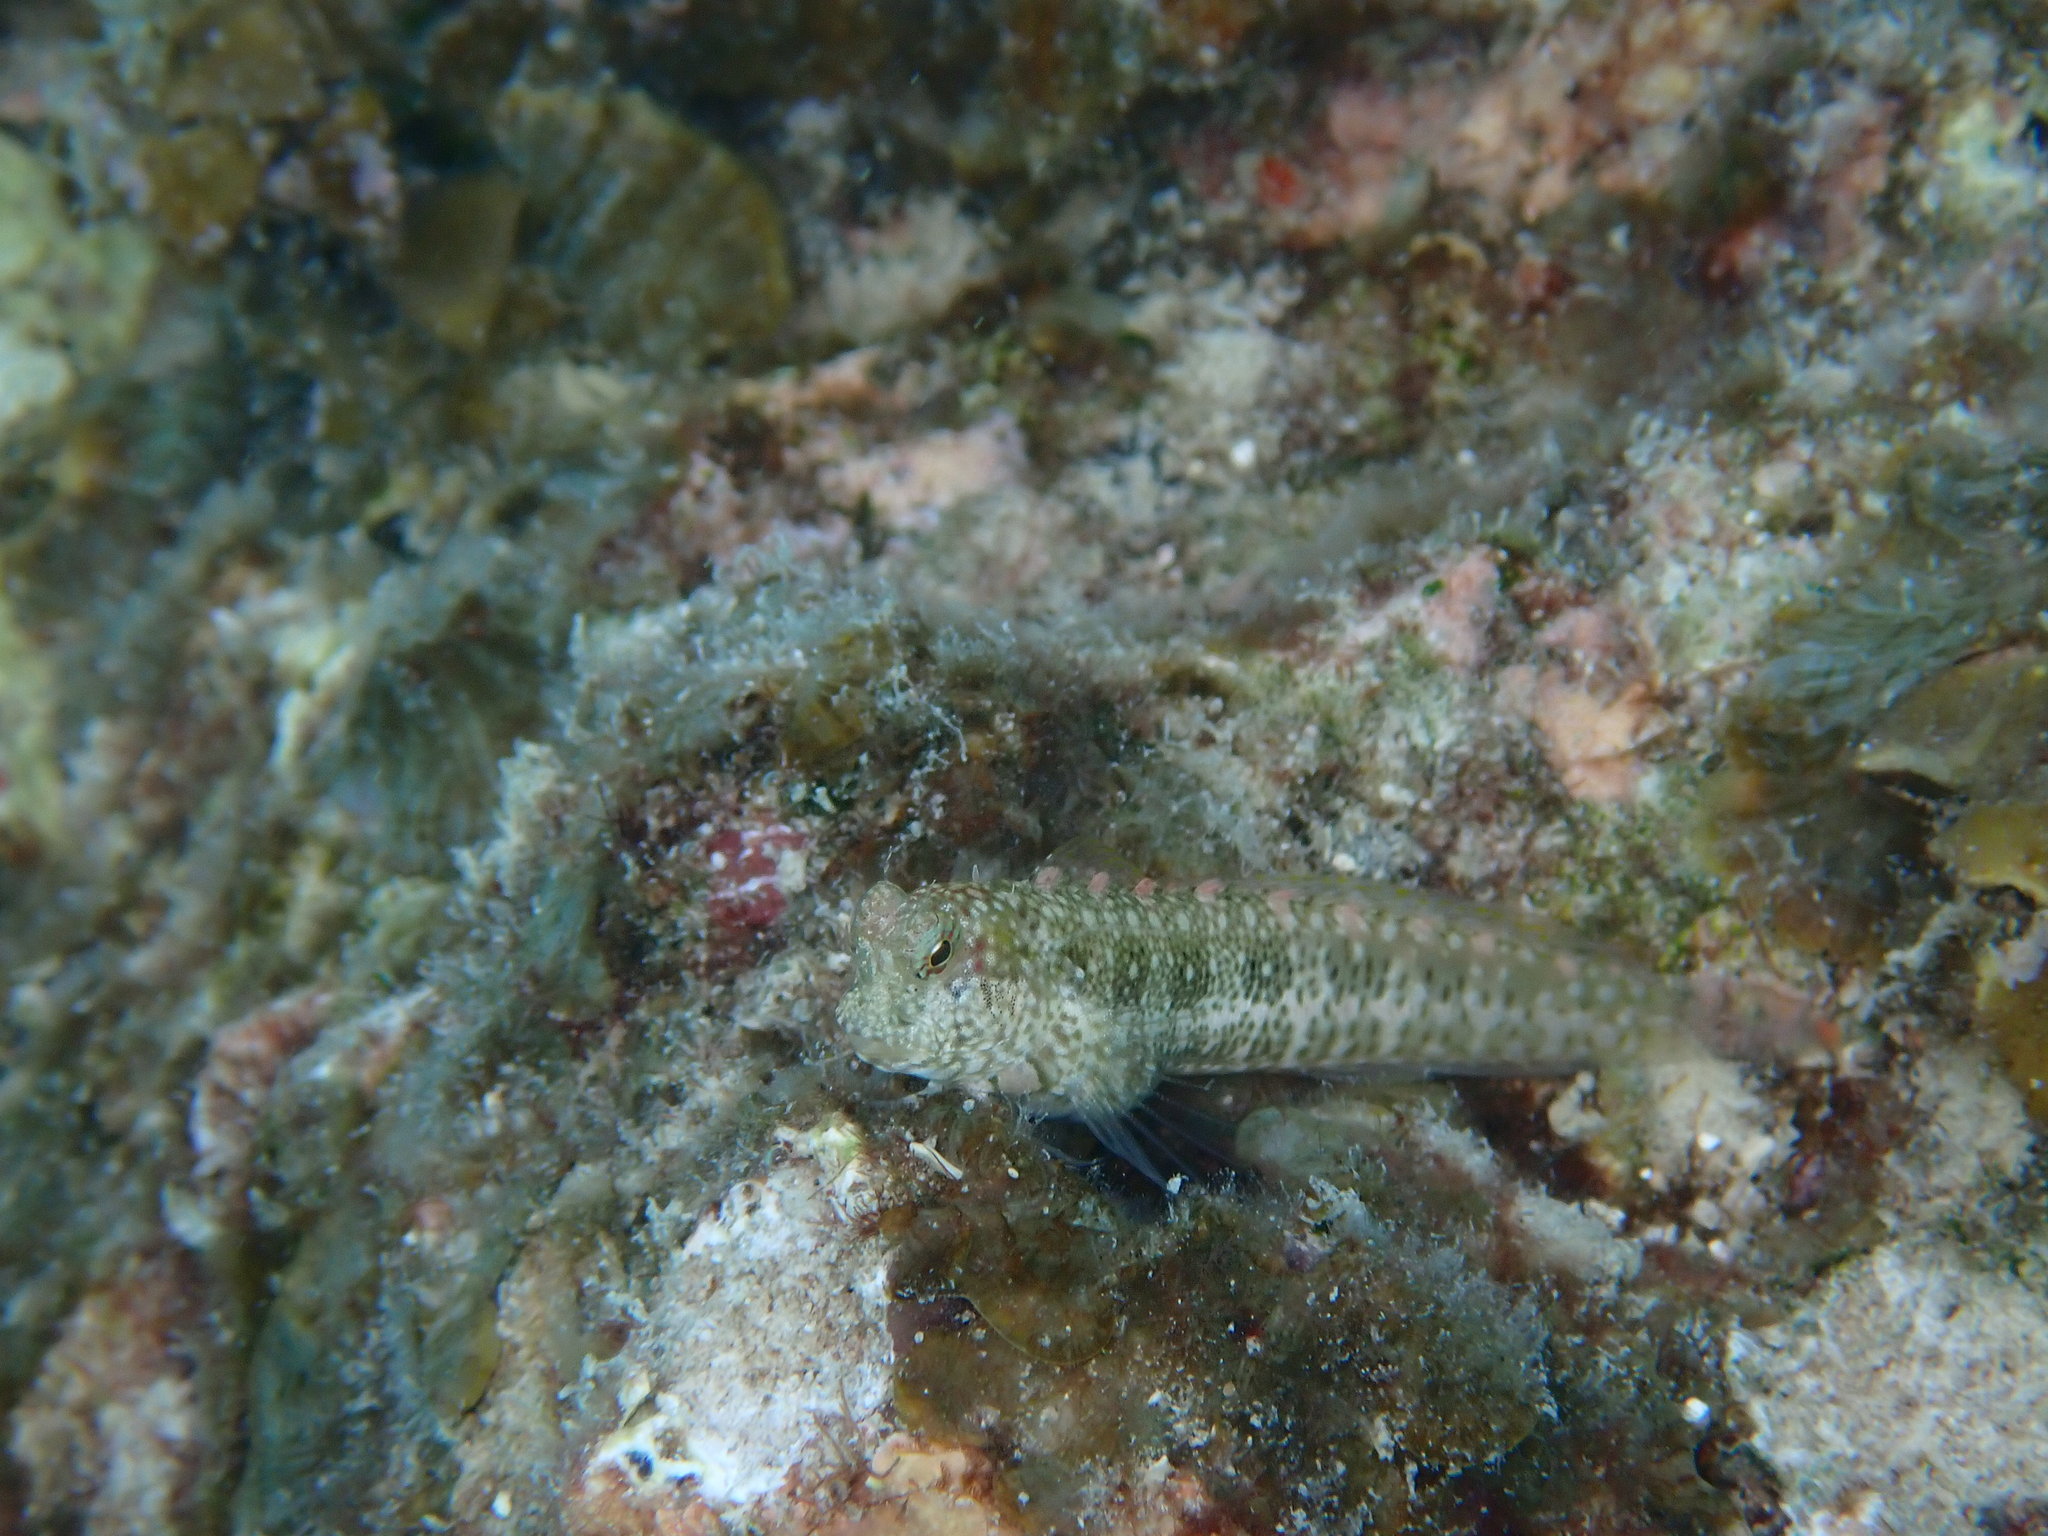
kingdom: Animalia
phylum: Chordata
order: Perciformes
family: Blenniidae
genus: Salarias
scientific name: Salarias guttatus
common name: Breast-spot blenny
